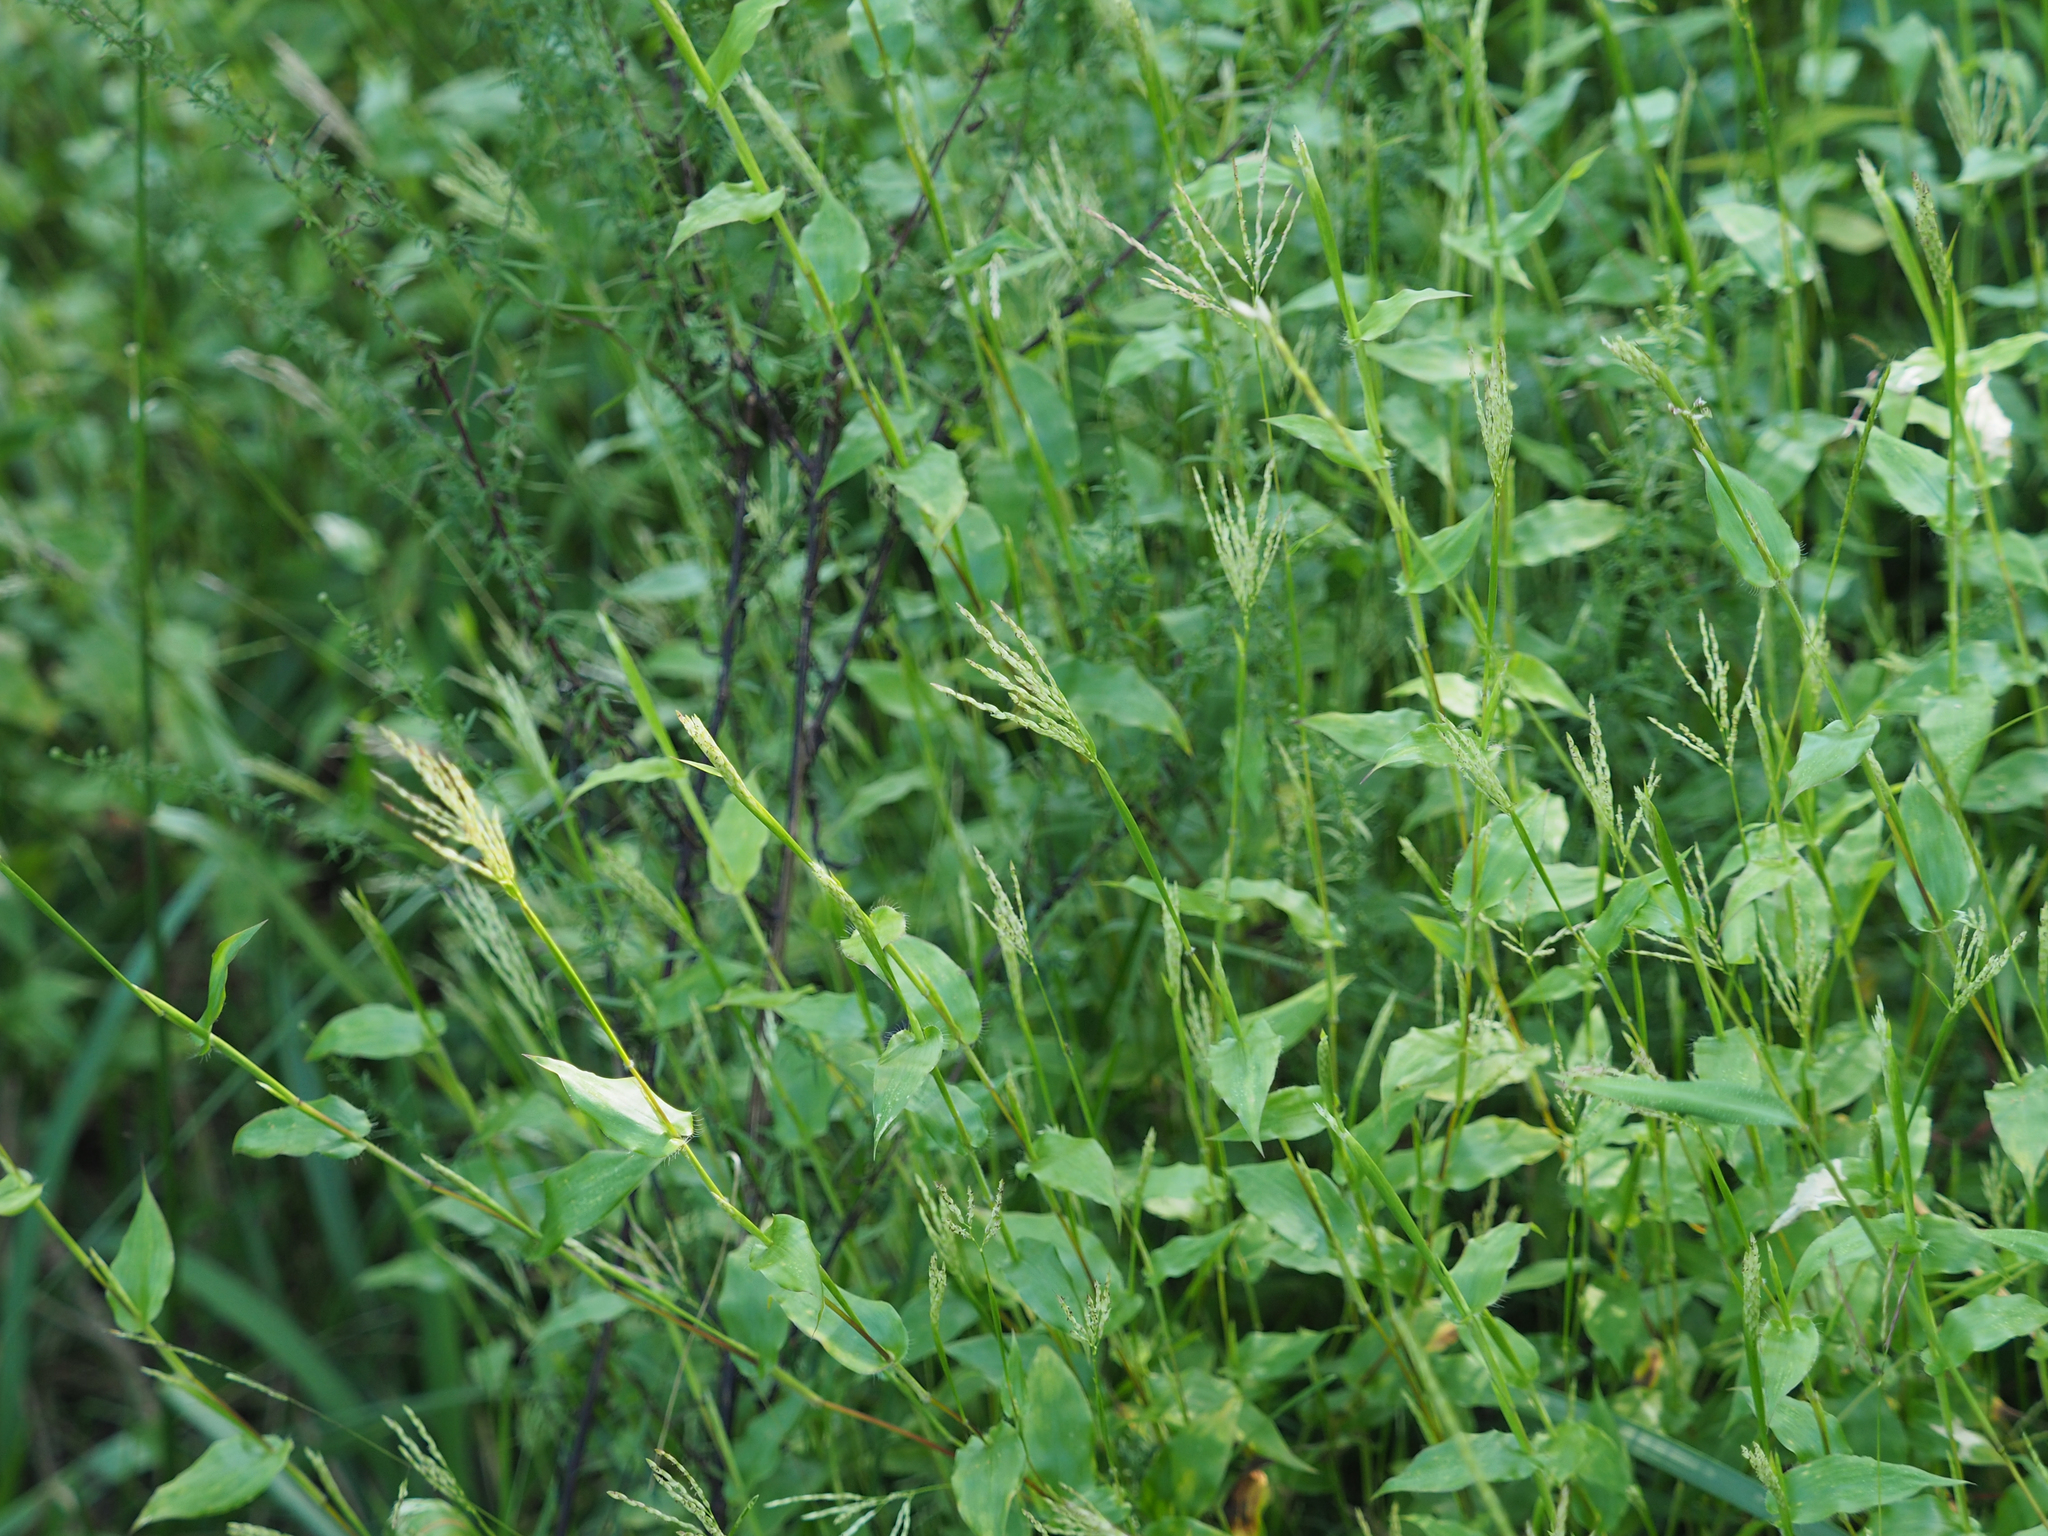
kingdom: Plantae
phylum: Tracheophyta
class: Liliopsida
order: Poales
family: Poaceae
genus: Arthraxon
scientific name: Arthraxon hispidus
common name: Small carpgrass
